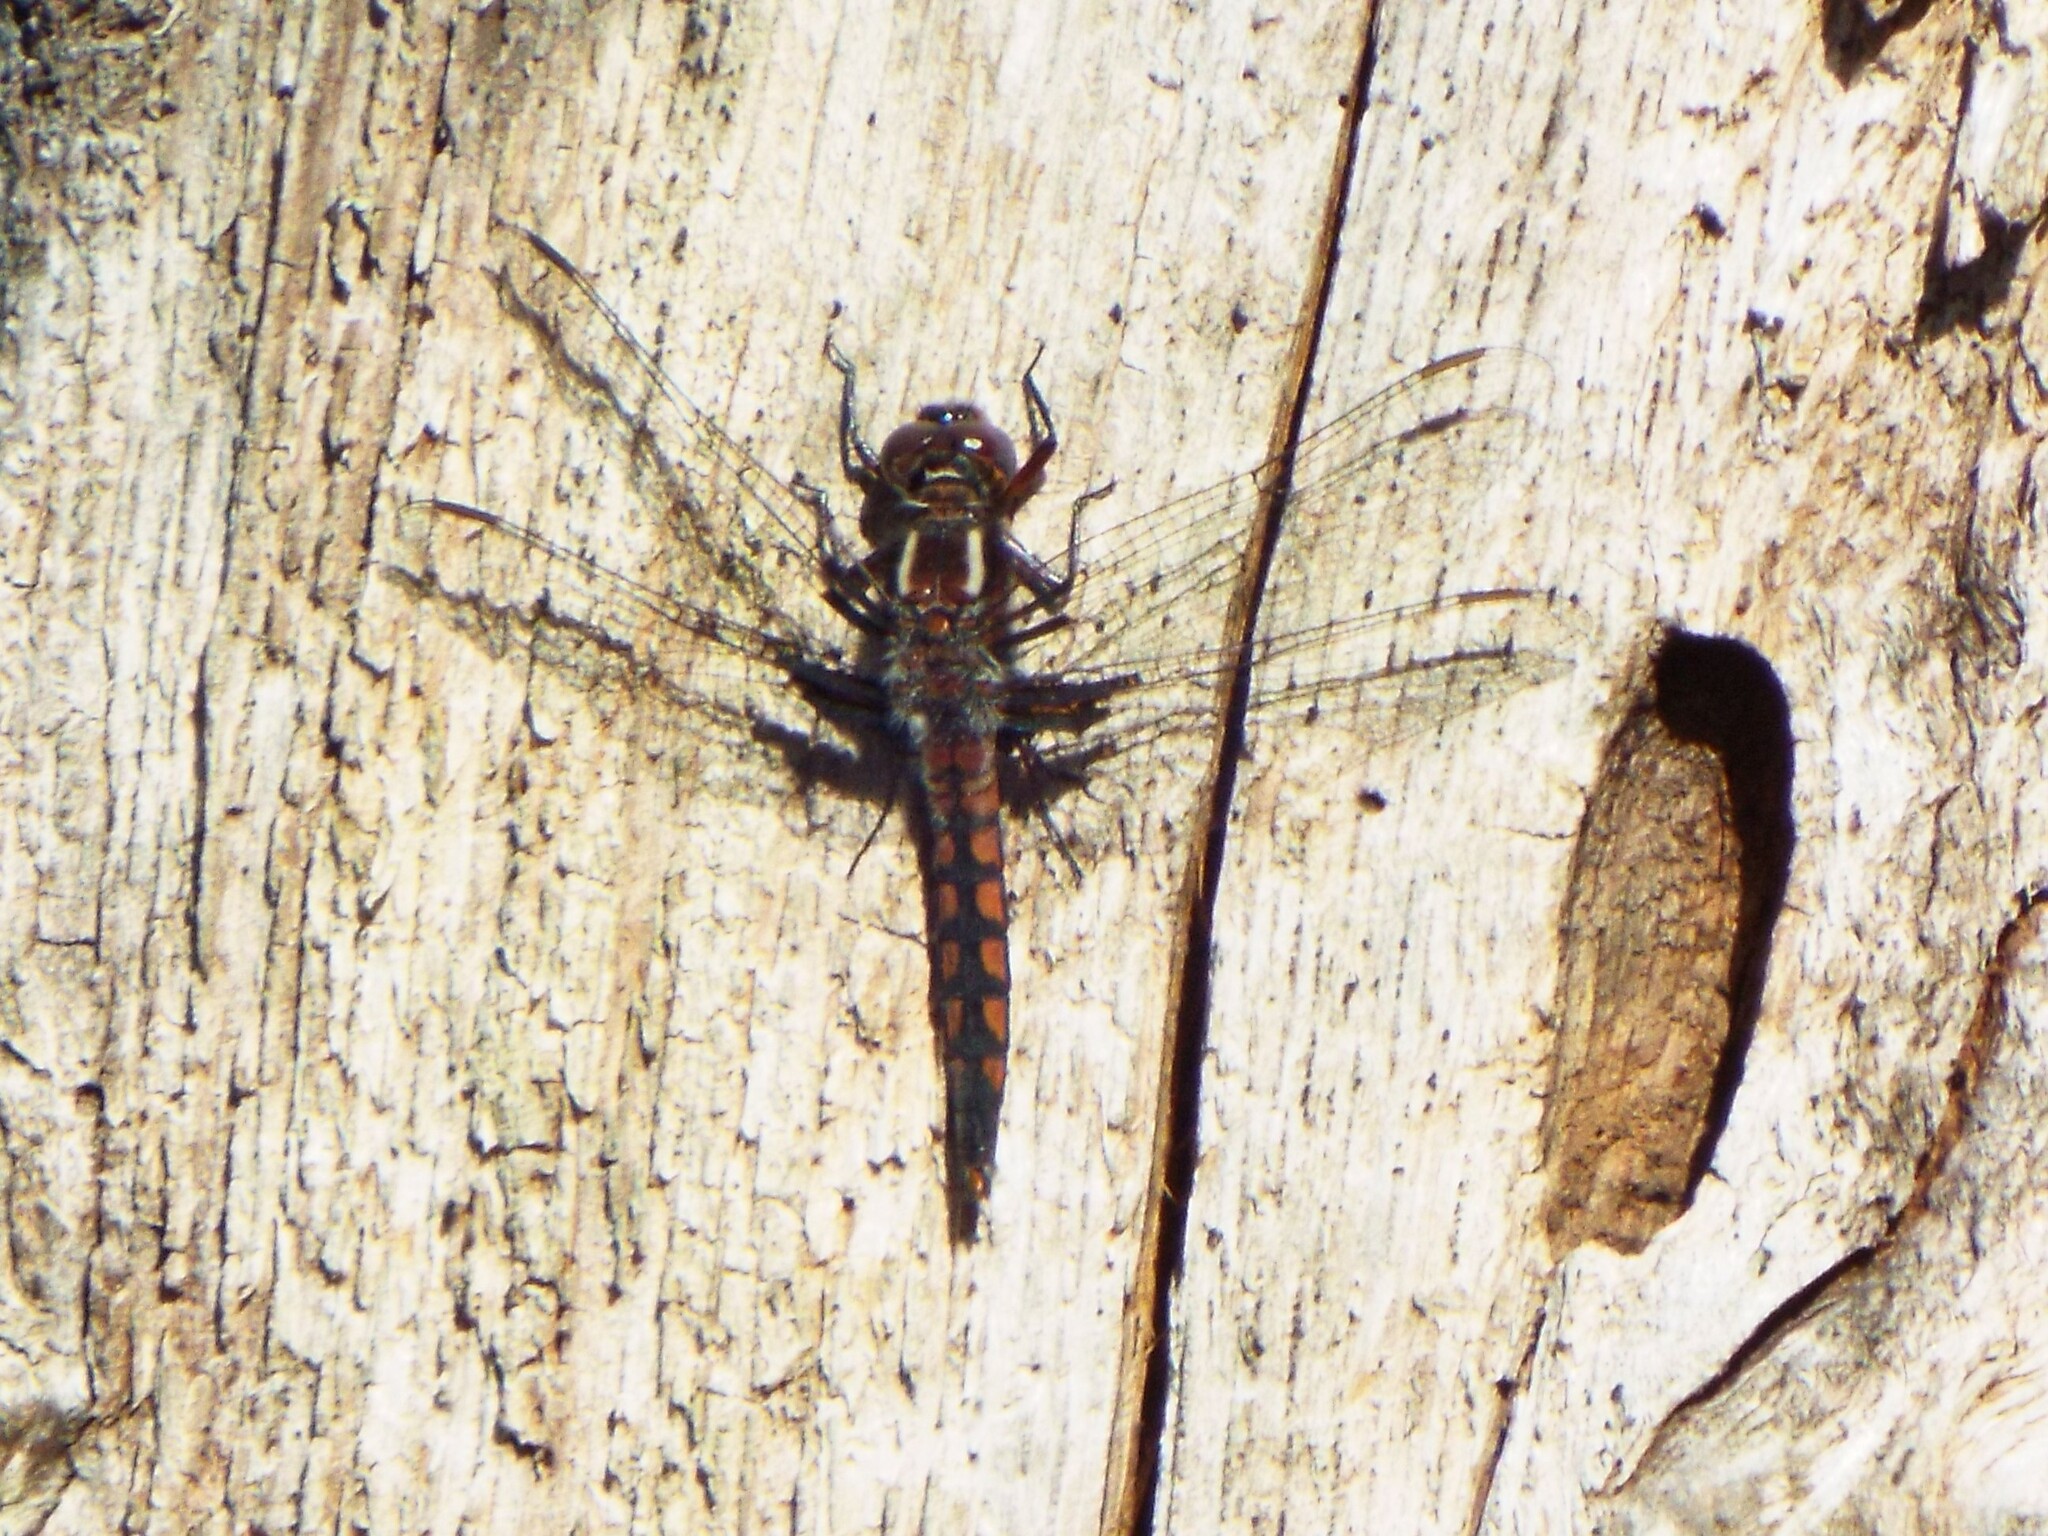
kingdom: Animalia
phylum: Arthropoda
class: Insecta
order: Odonata
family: Libellulidae
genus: Ladona
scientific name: Ladona deplanata
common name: Blue corporal
